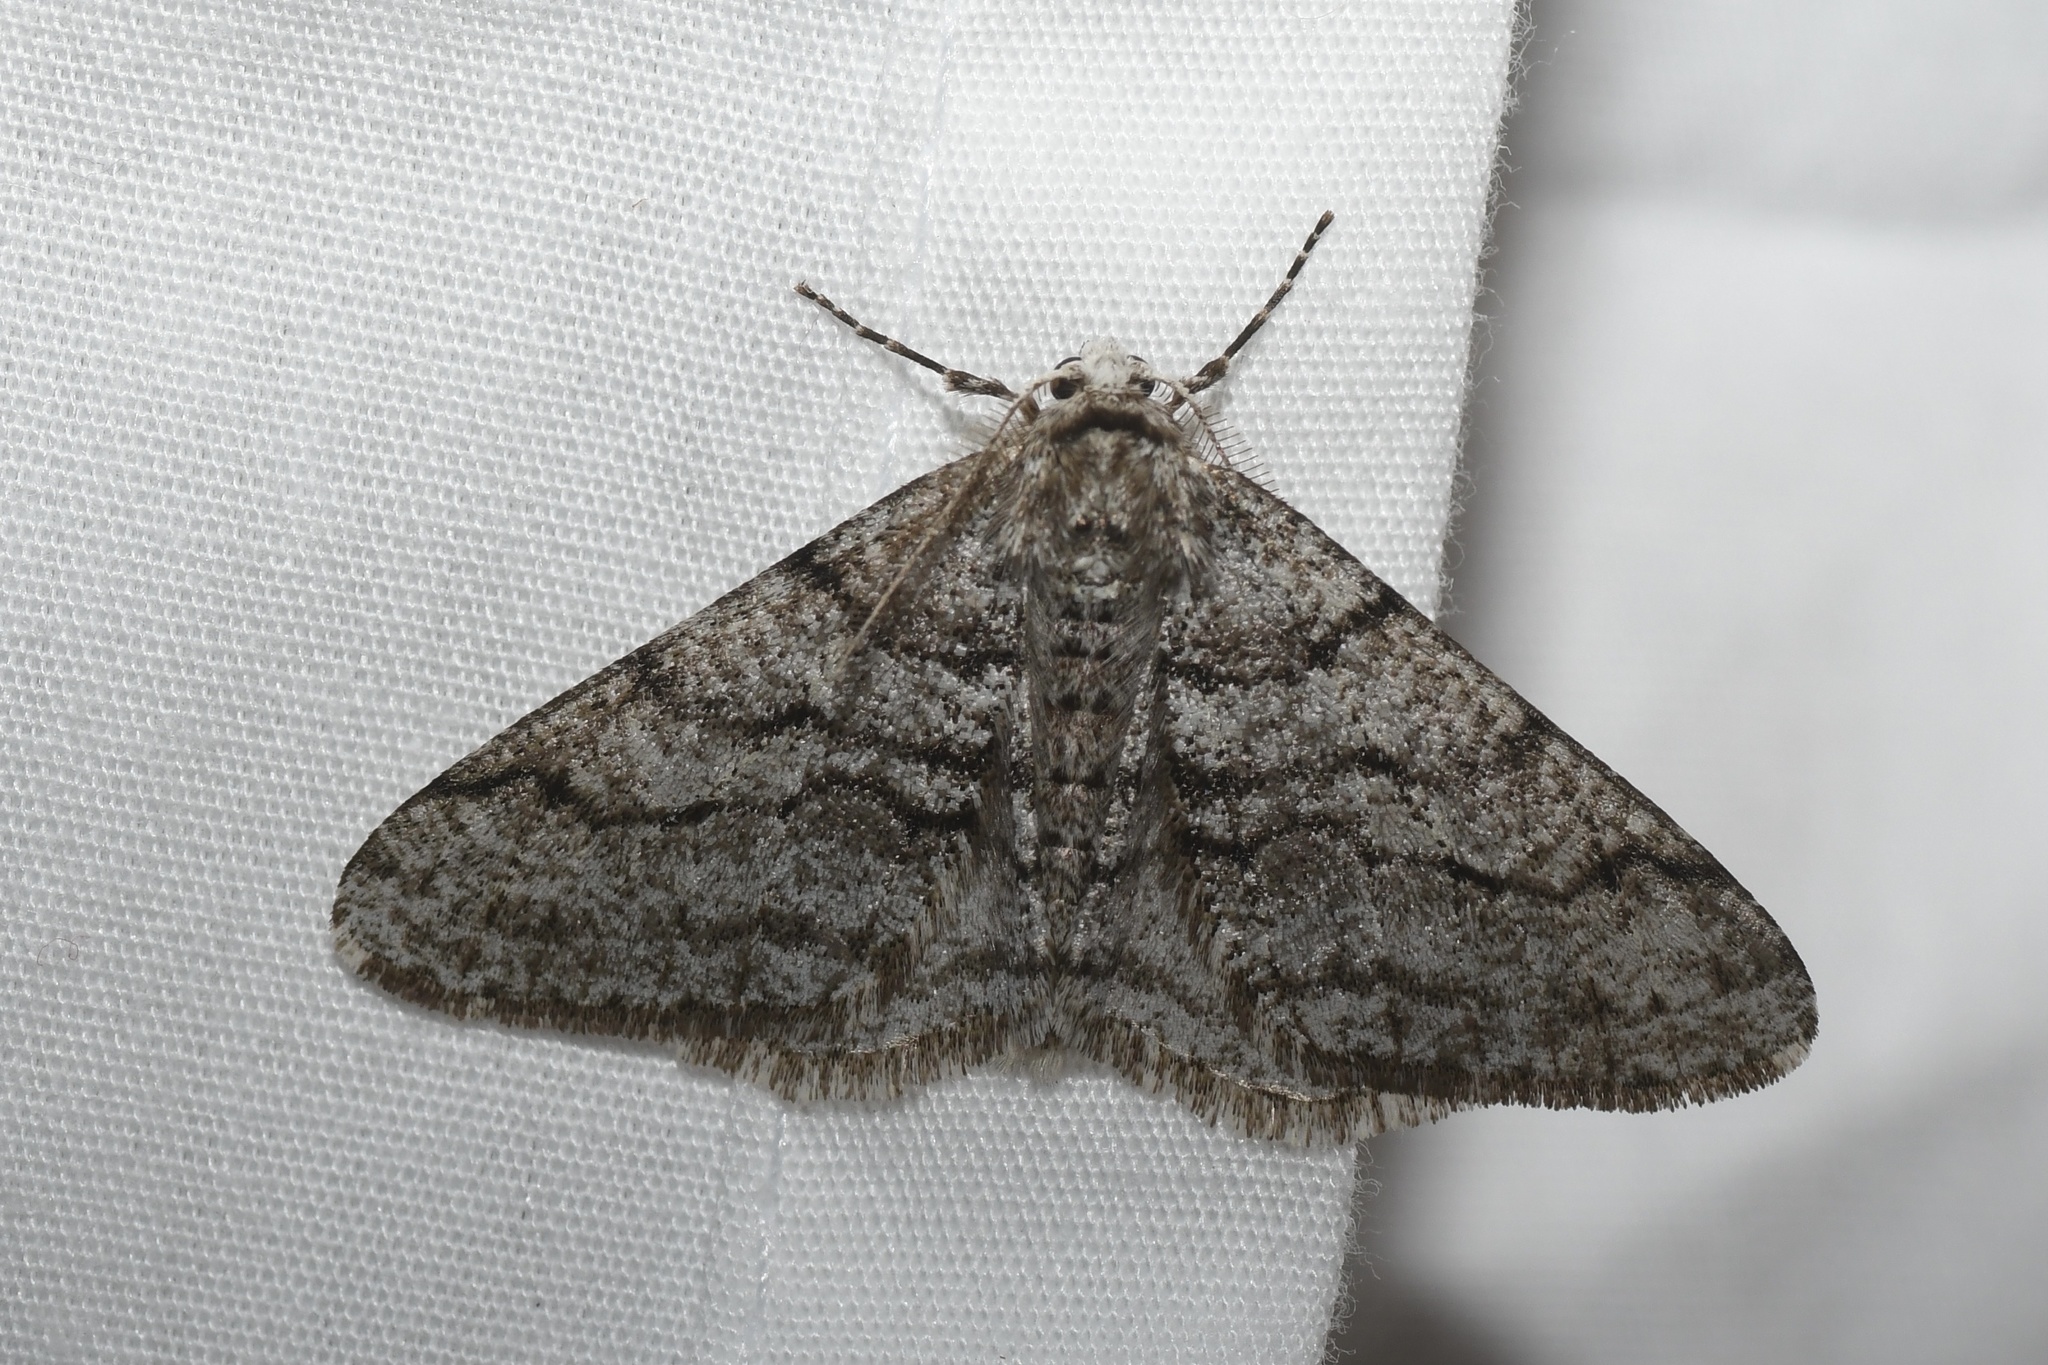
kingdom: Animalia
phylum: Arthropoda
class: Insecta
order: Lepidoptera
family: Geometridae
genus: Phigalia
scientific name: Phigalia titea
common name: Spiny looper
